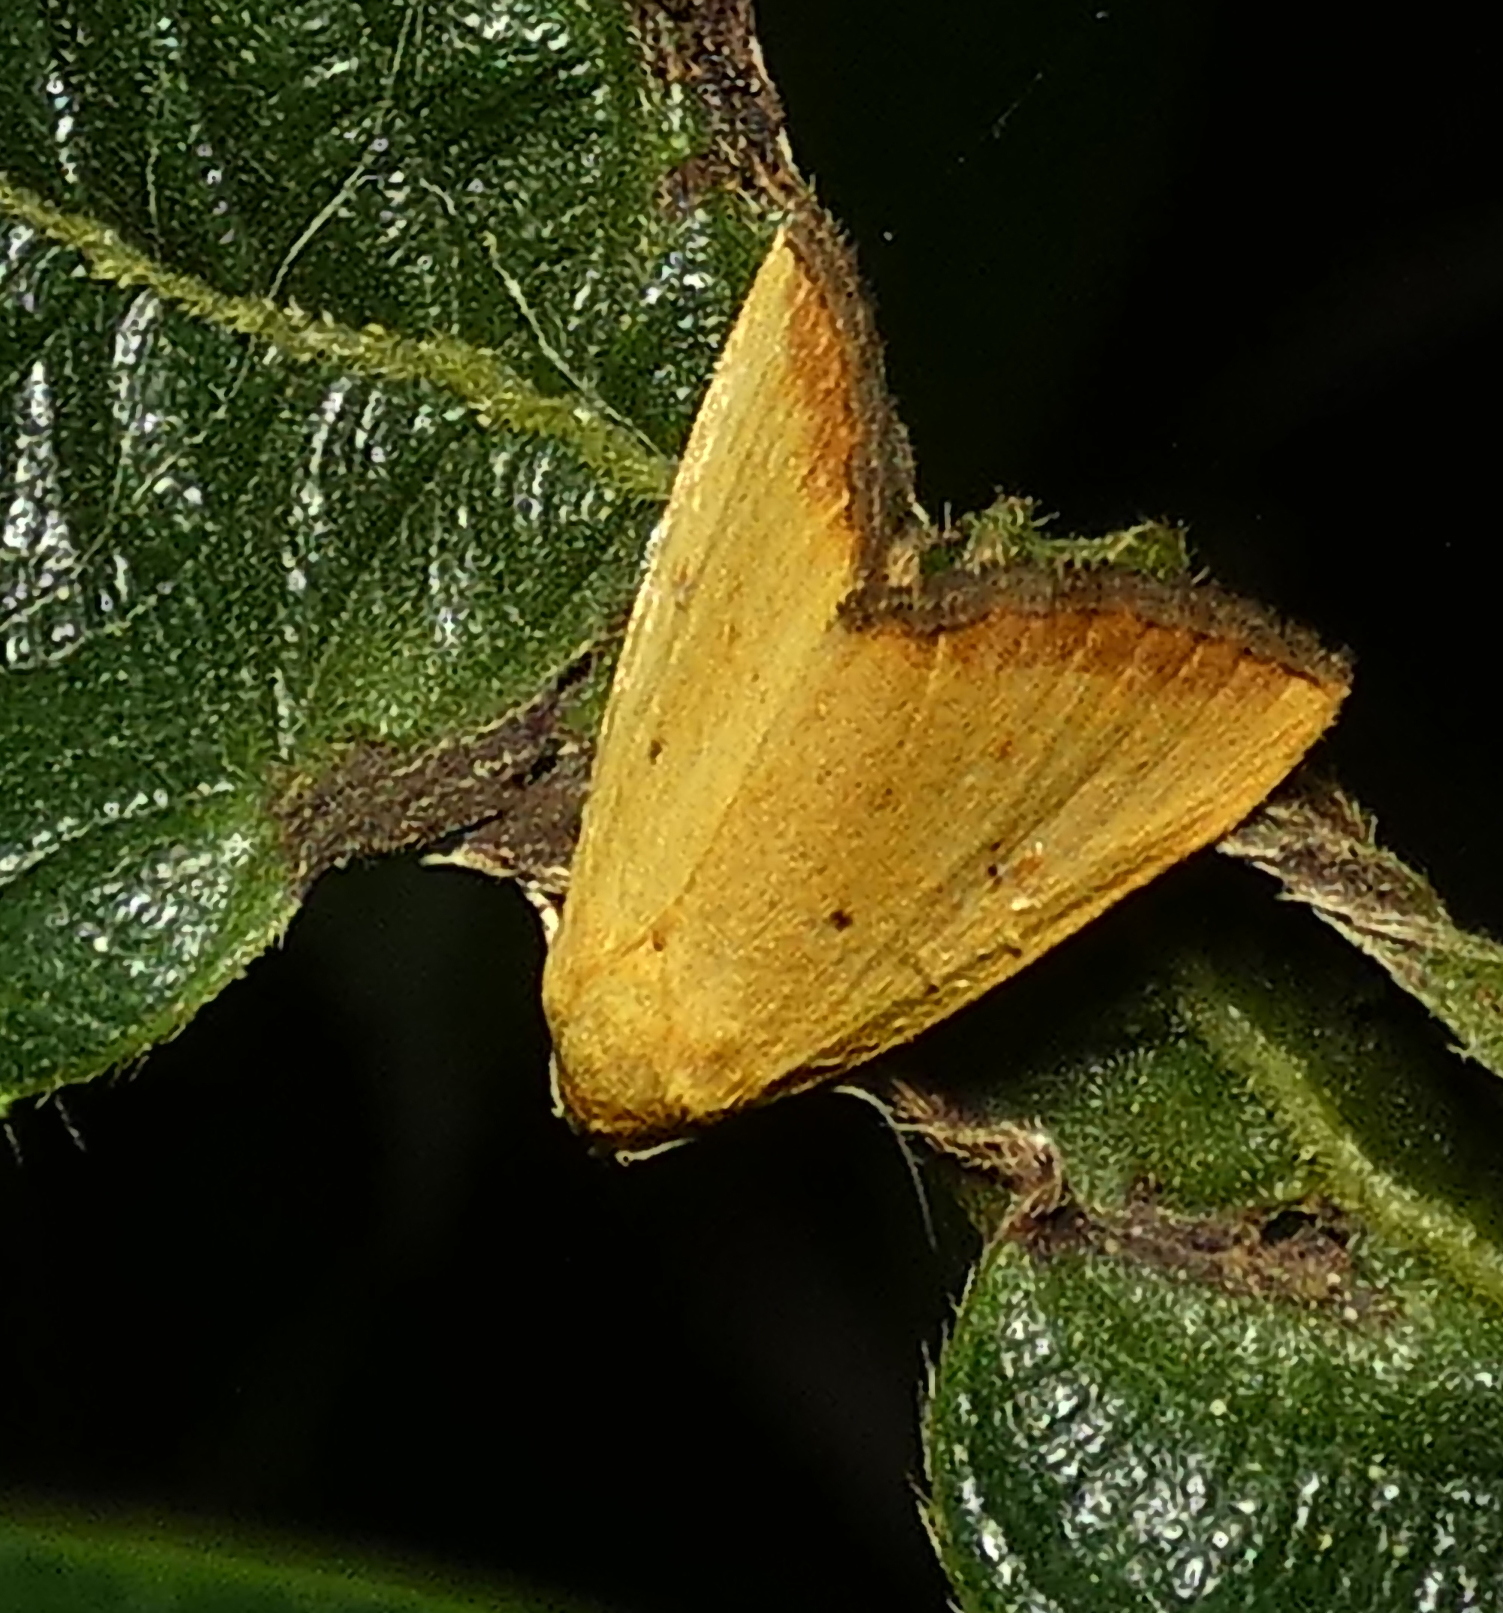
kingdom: Animalia
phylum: Arthropoda
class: Insecta
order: Lepidoptera
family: Noctuidae
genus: Marimatha
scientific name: Marimatha botyoides
